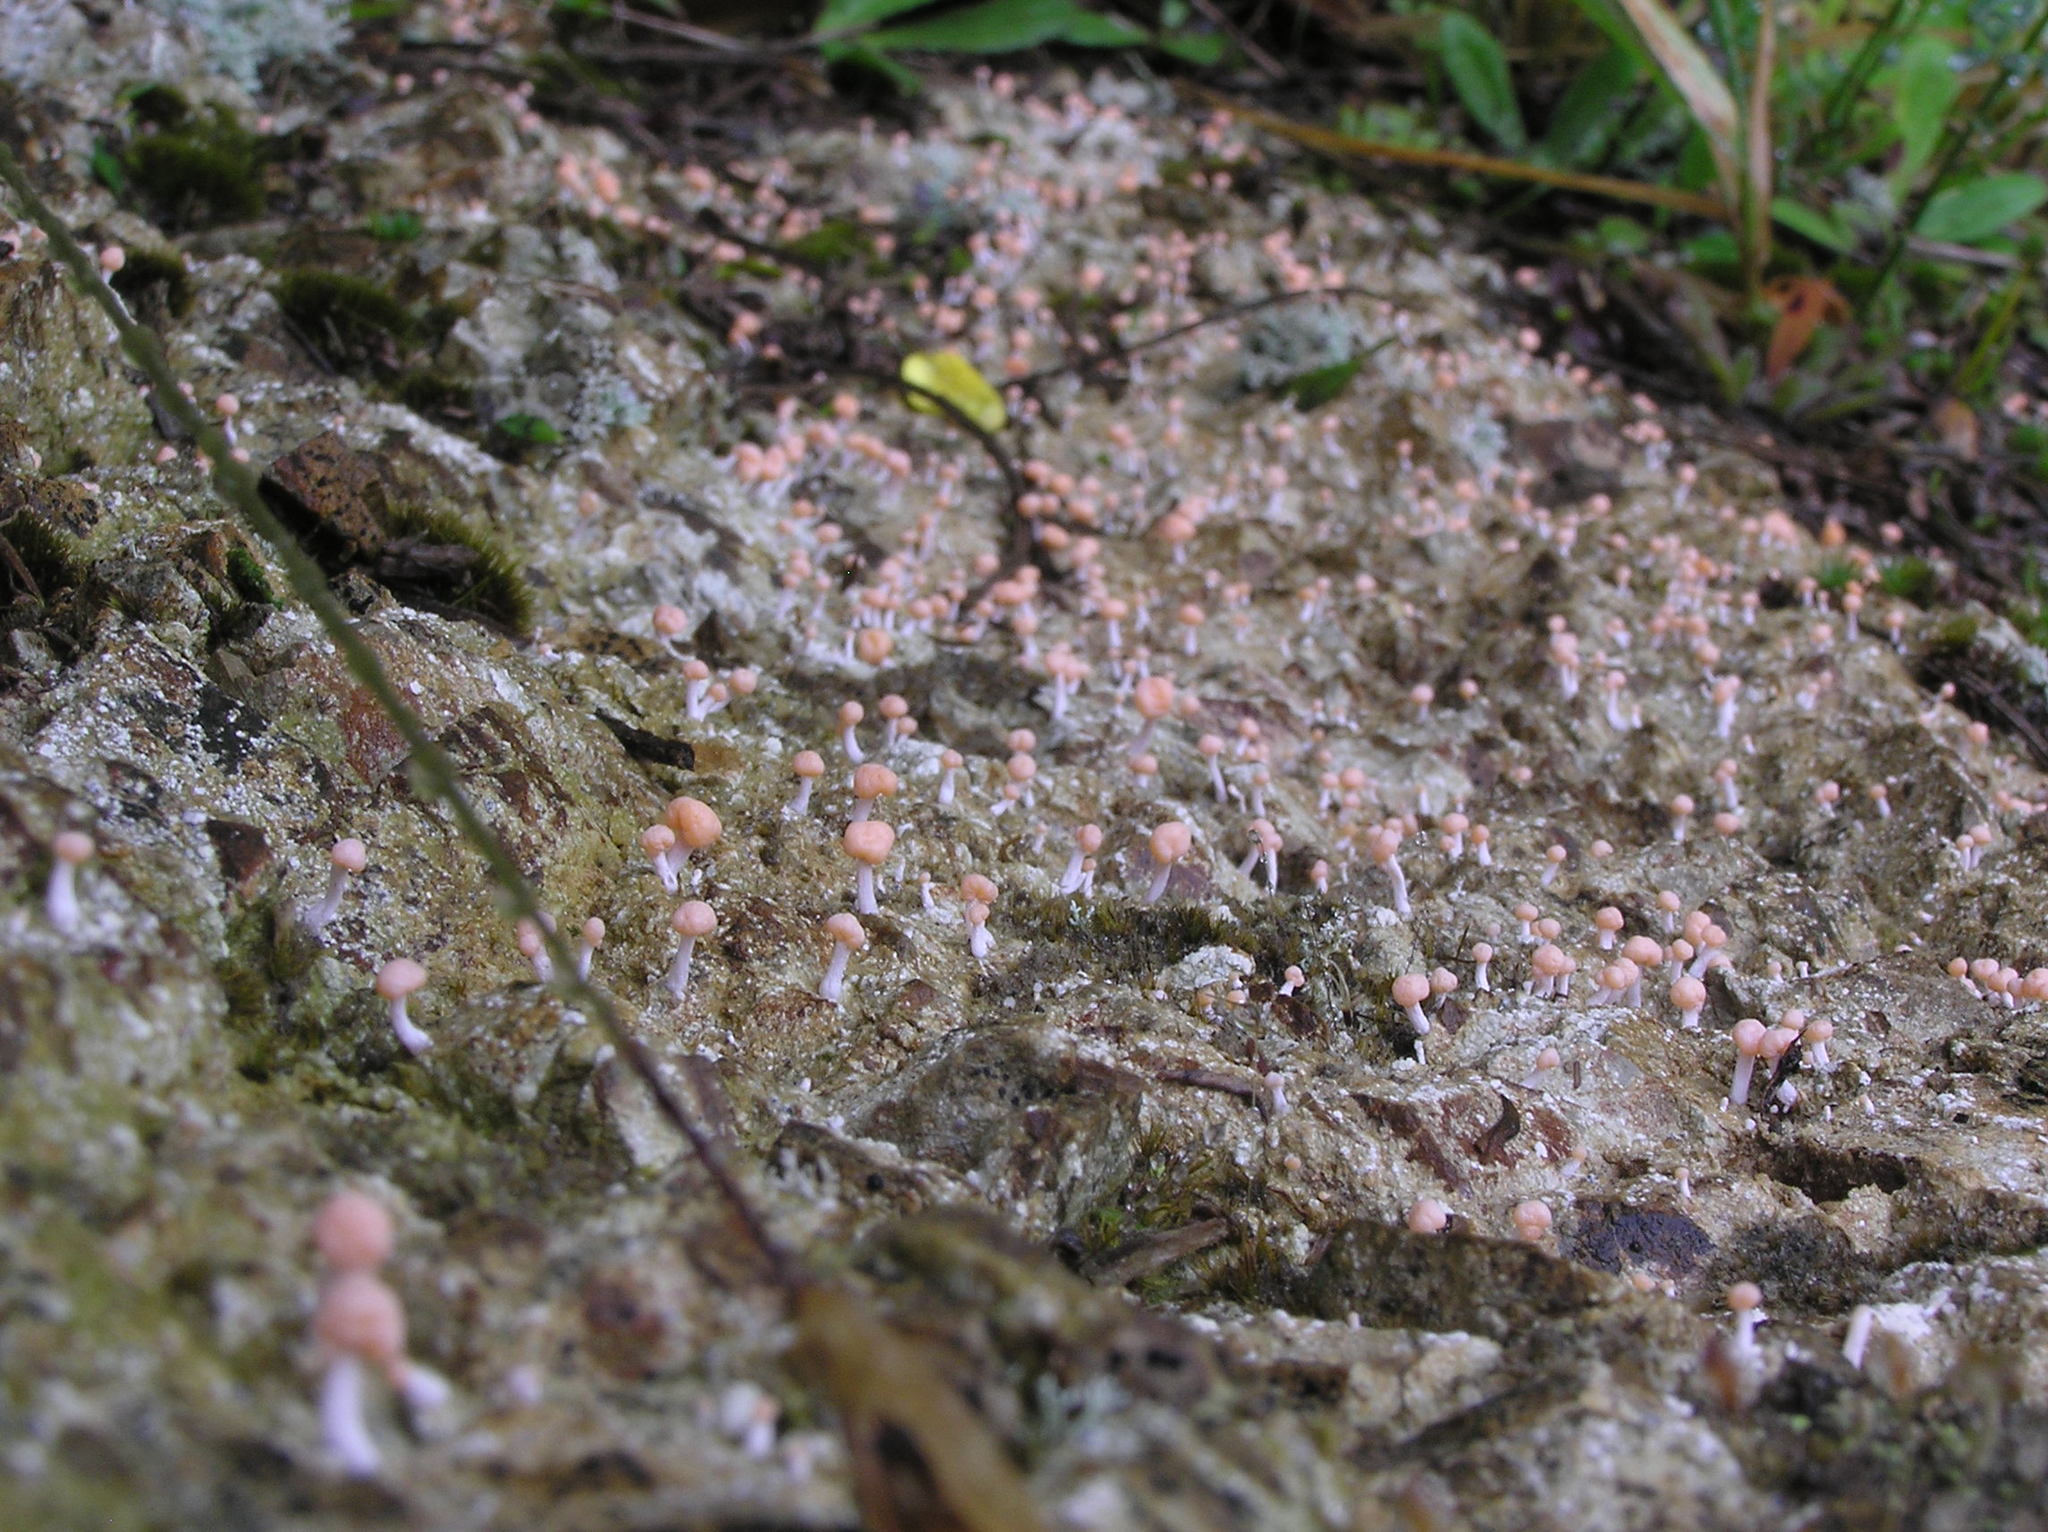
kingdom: Fungi
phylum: Ascomycota
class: Lecanoromycetes
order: Pertusariales
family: Icmadophilaceae
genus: Dibaeis
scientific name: Dibaeis arcuata
